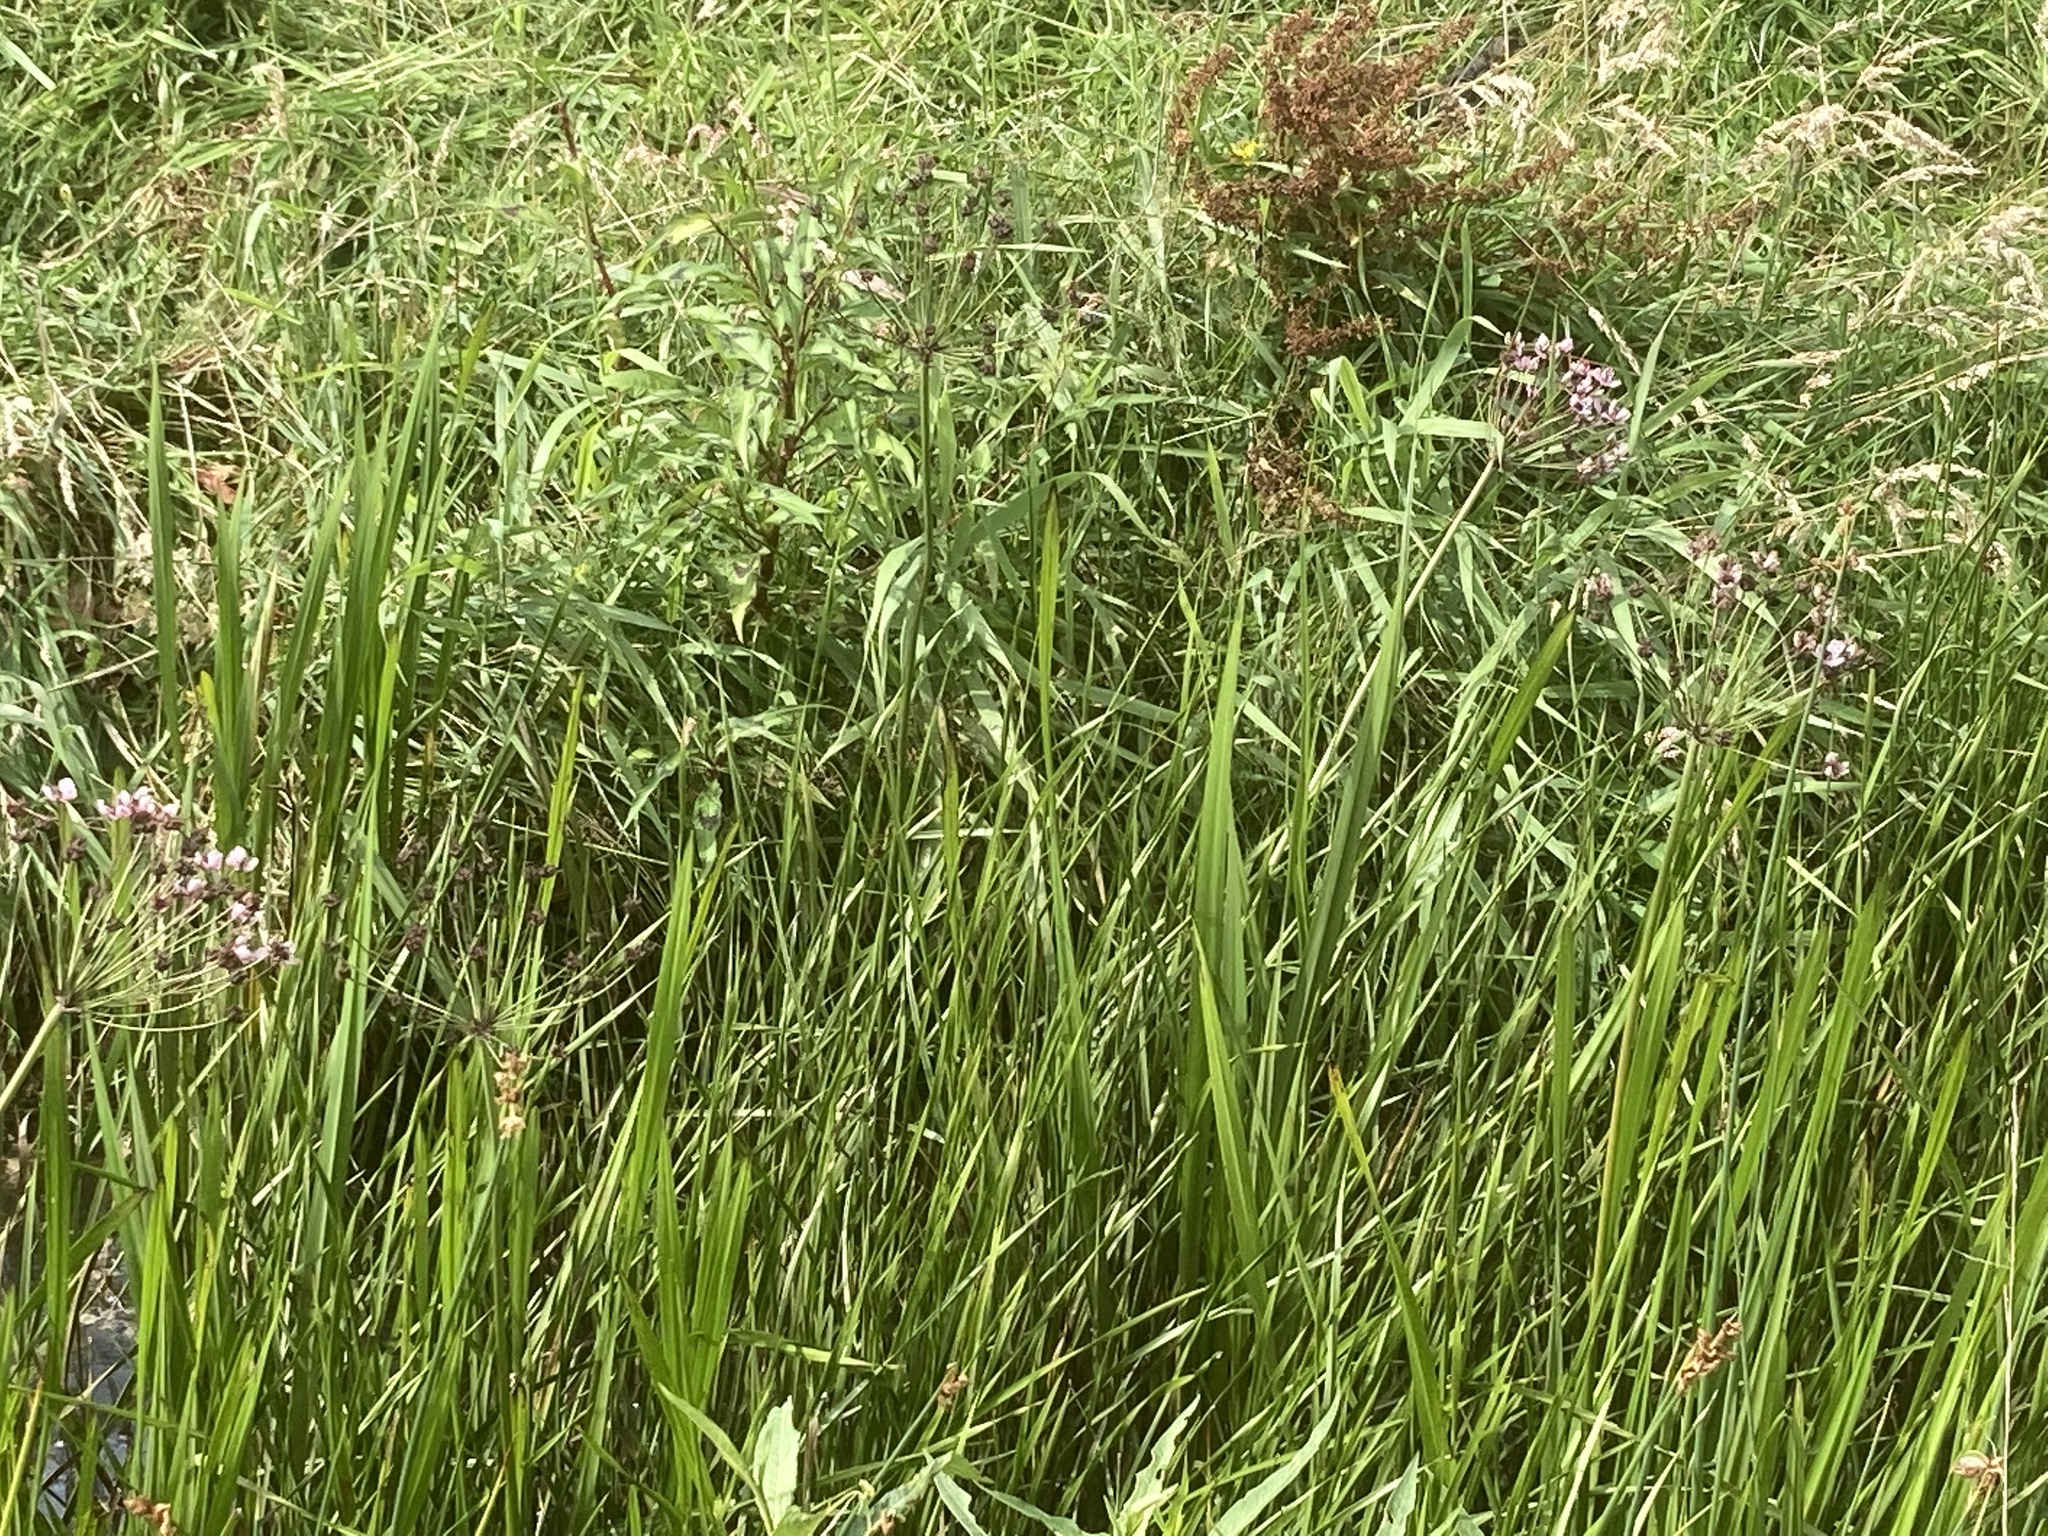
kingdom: Plantae
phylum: Tracheophyta
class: Liliopsida
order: Alismatales
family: Butomaceae
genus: Butomus
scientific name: Butomus umbellatus
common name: Flowering-rush
